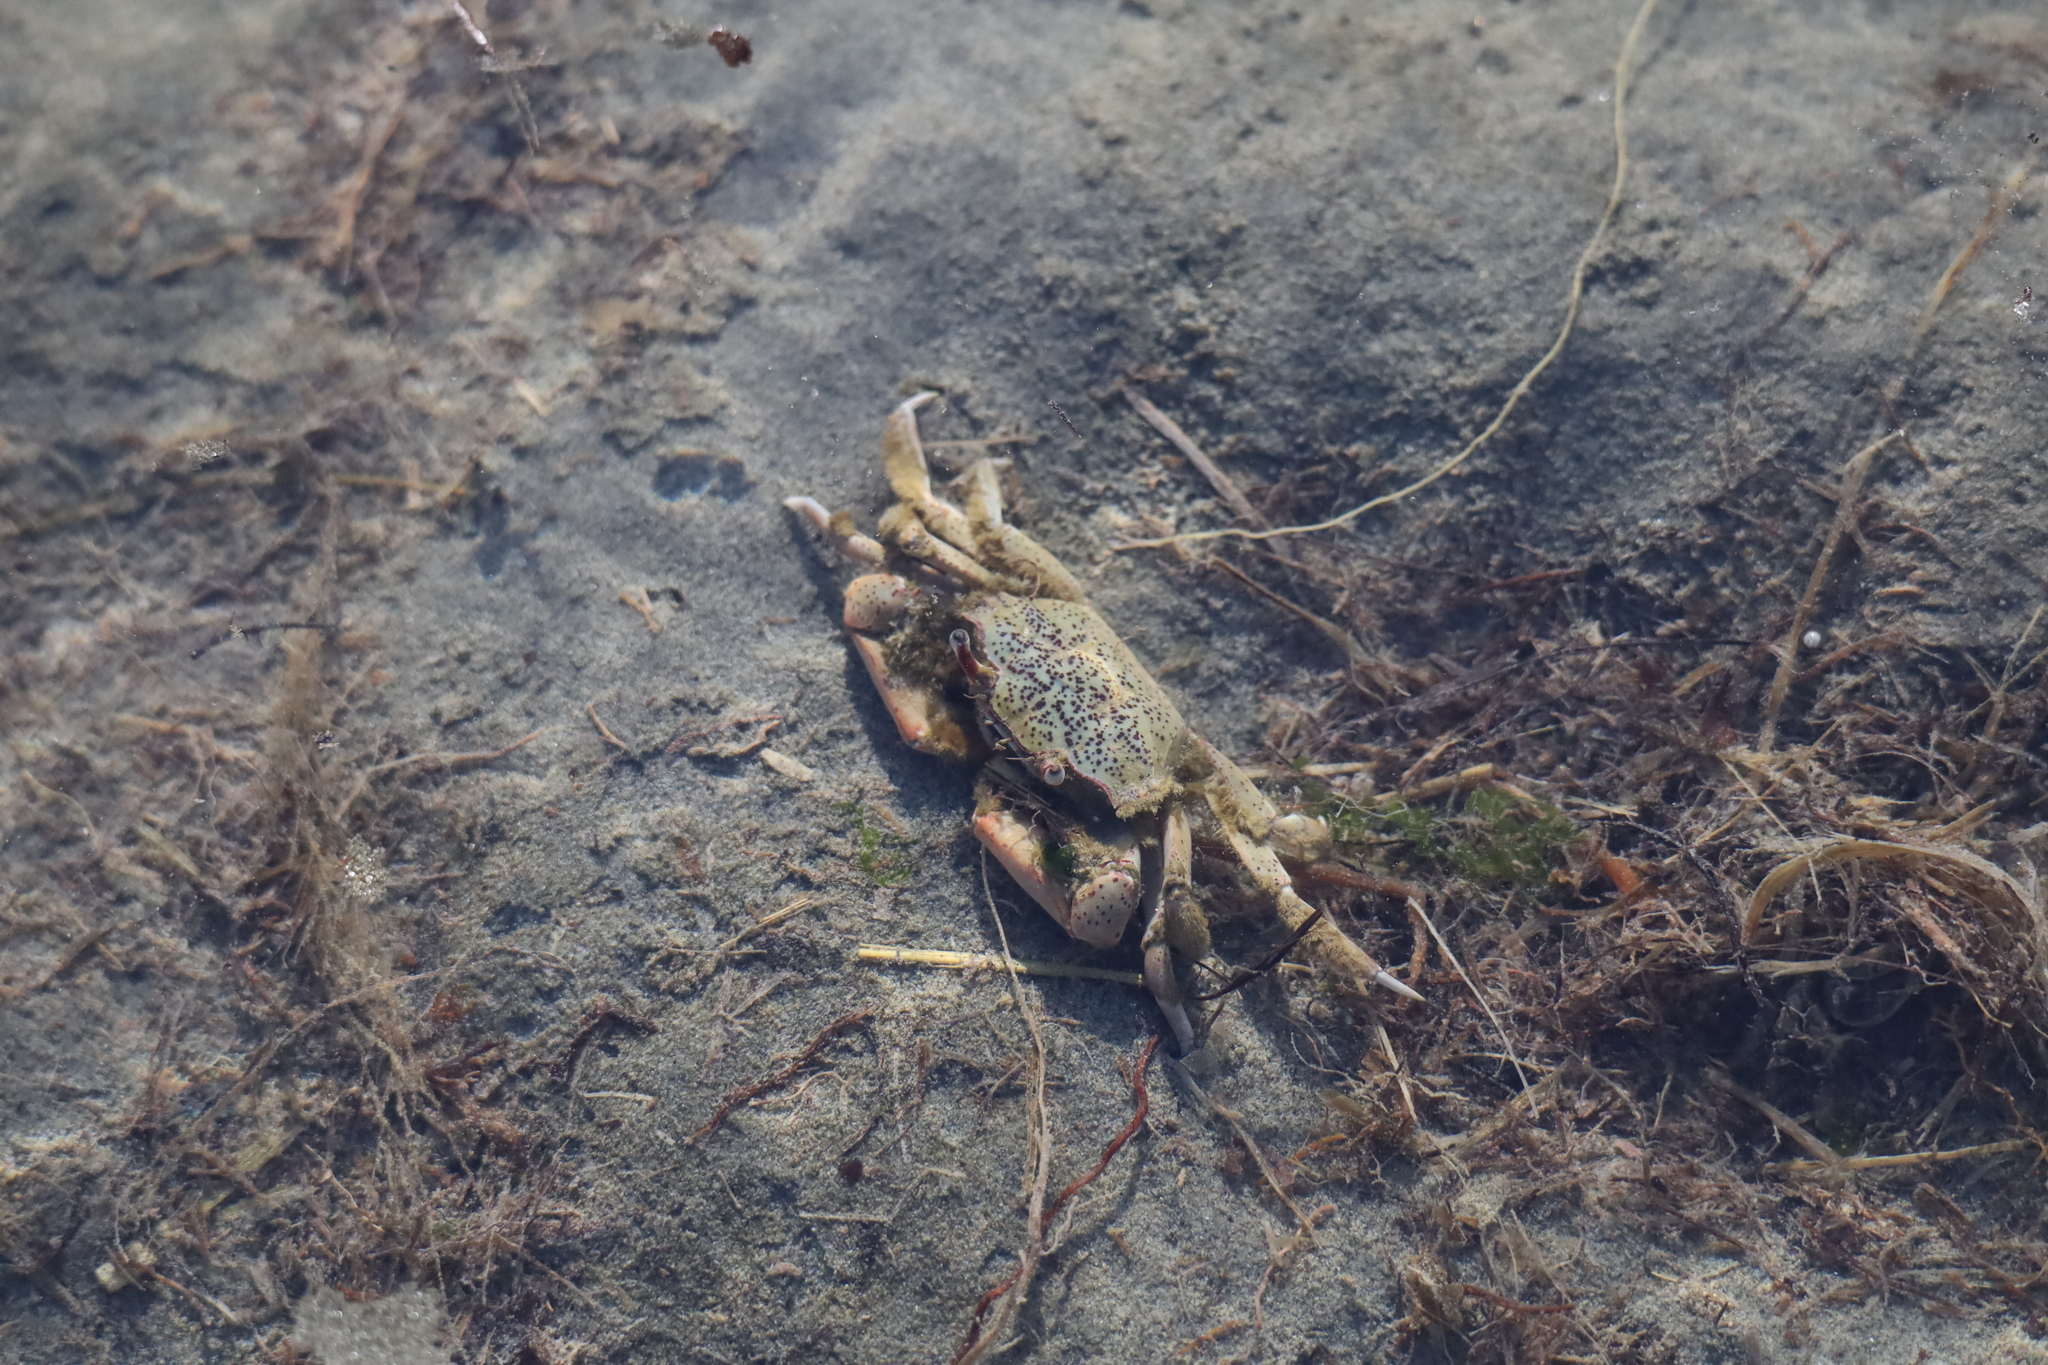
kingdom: Animalia
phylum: Arthropoda
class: Malacostraca
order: Decapoda
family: Macrophthalmidae
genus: Hemiplax
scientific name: Hemiplax hirtipes
